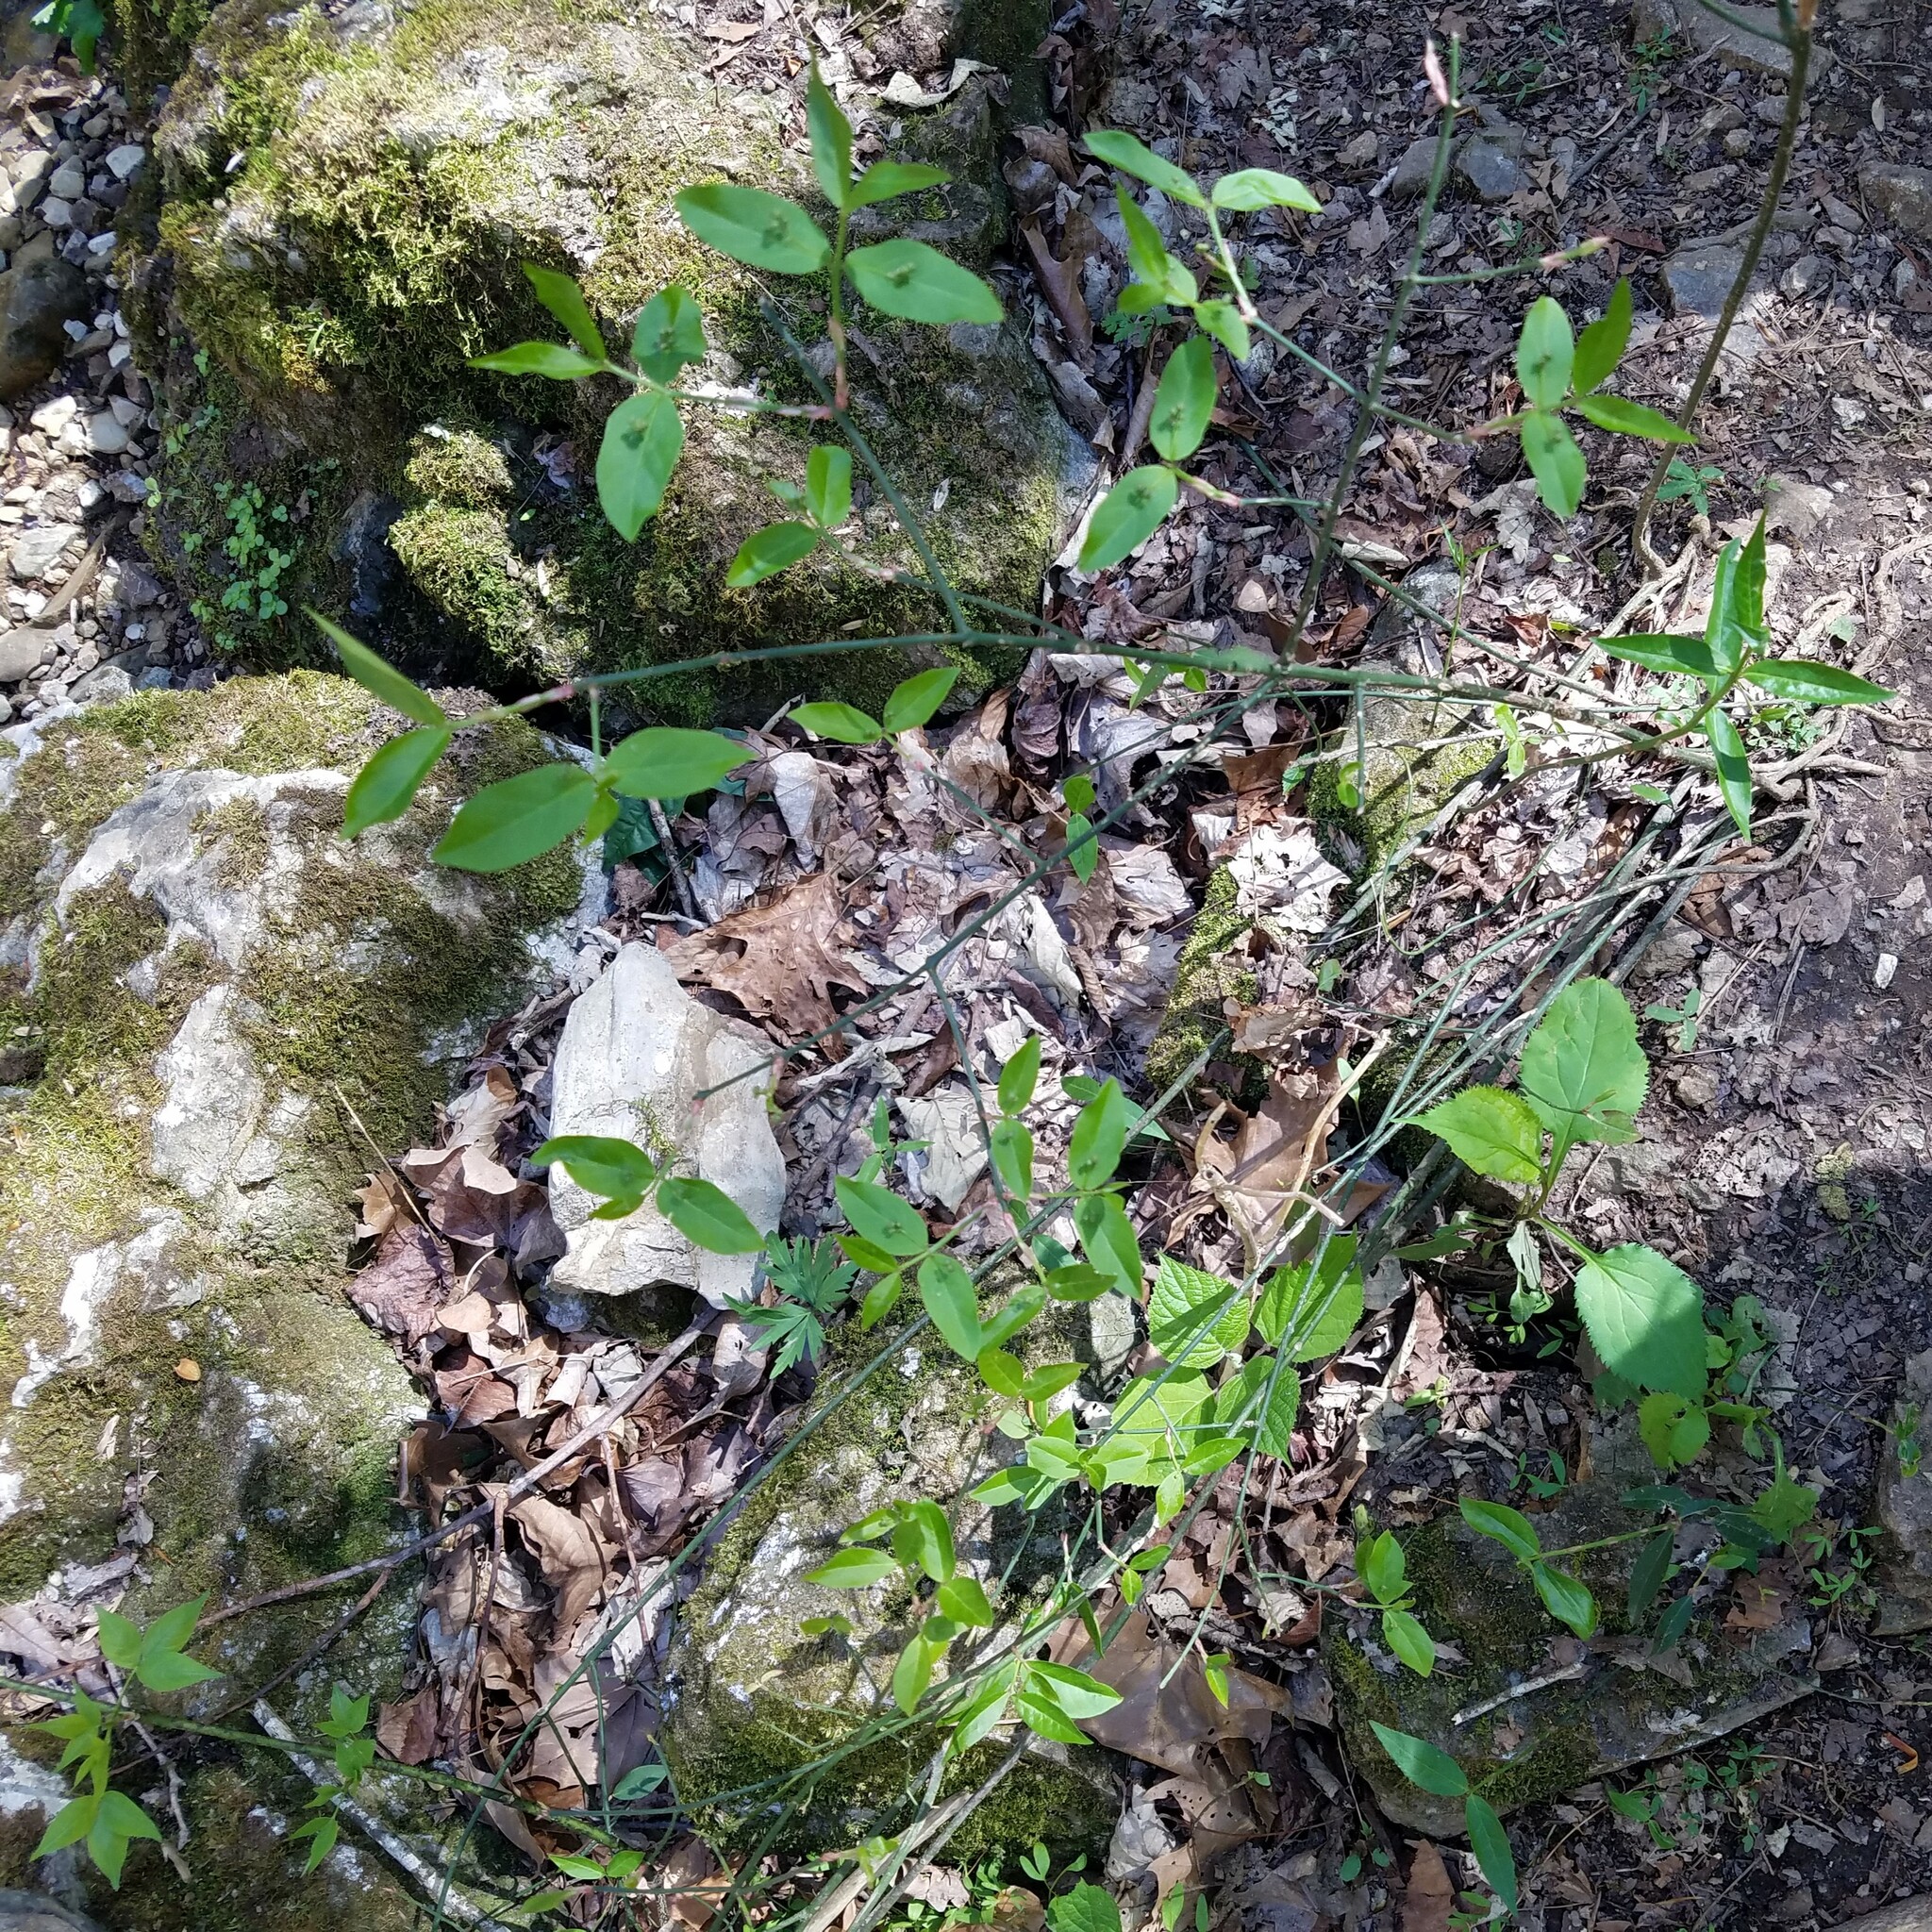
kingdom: Plantae
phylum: Tracheophyta
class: Magnoliopsida
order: Celastrales
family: Celastraceae
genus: Euonymus
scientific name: Euonymus americanus
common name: Bursting-heart
